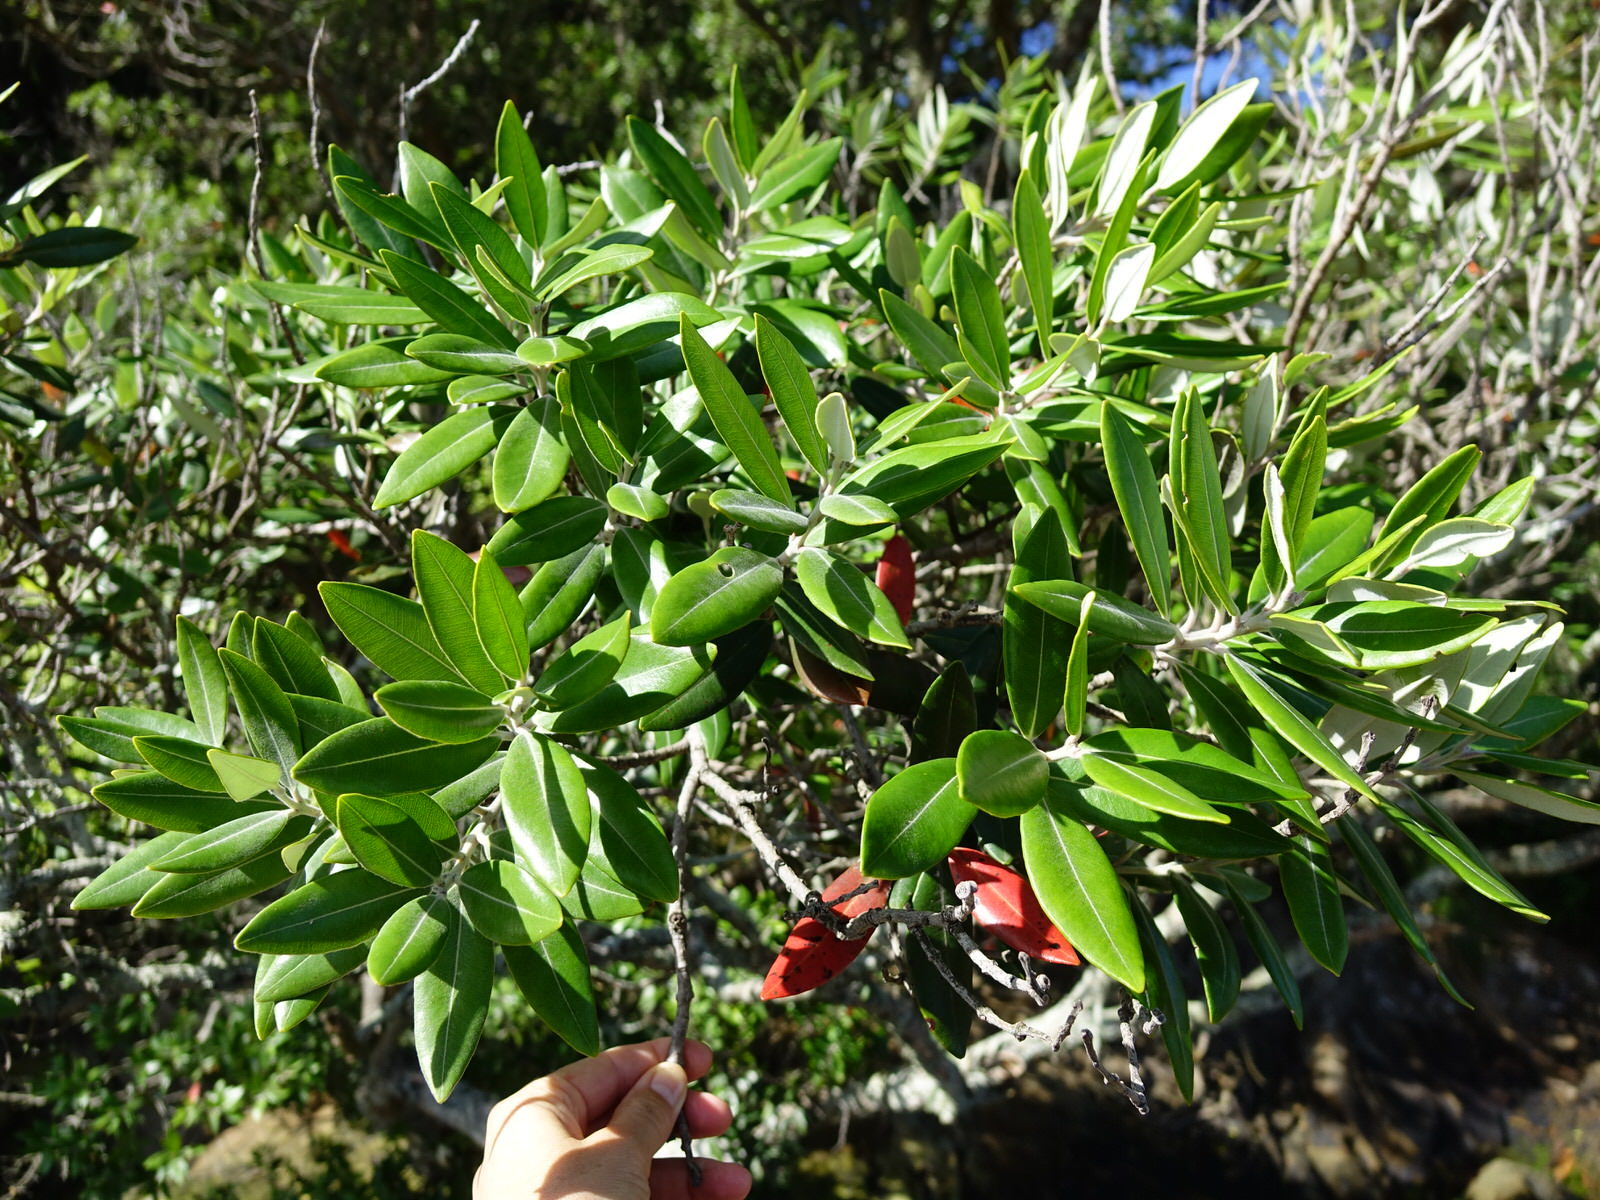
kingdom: Plantae
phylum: Tracheophyta
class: Magnoliopsida
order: Myrtales
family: Myrtaceae
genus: Metrosideros
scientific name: Metrosideros excelsa
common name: New zealand christmastree
